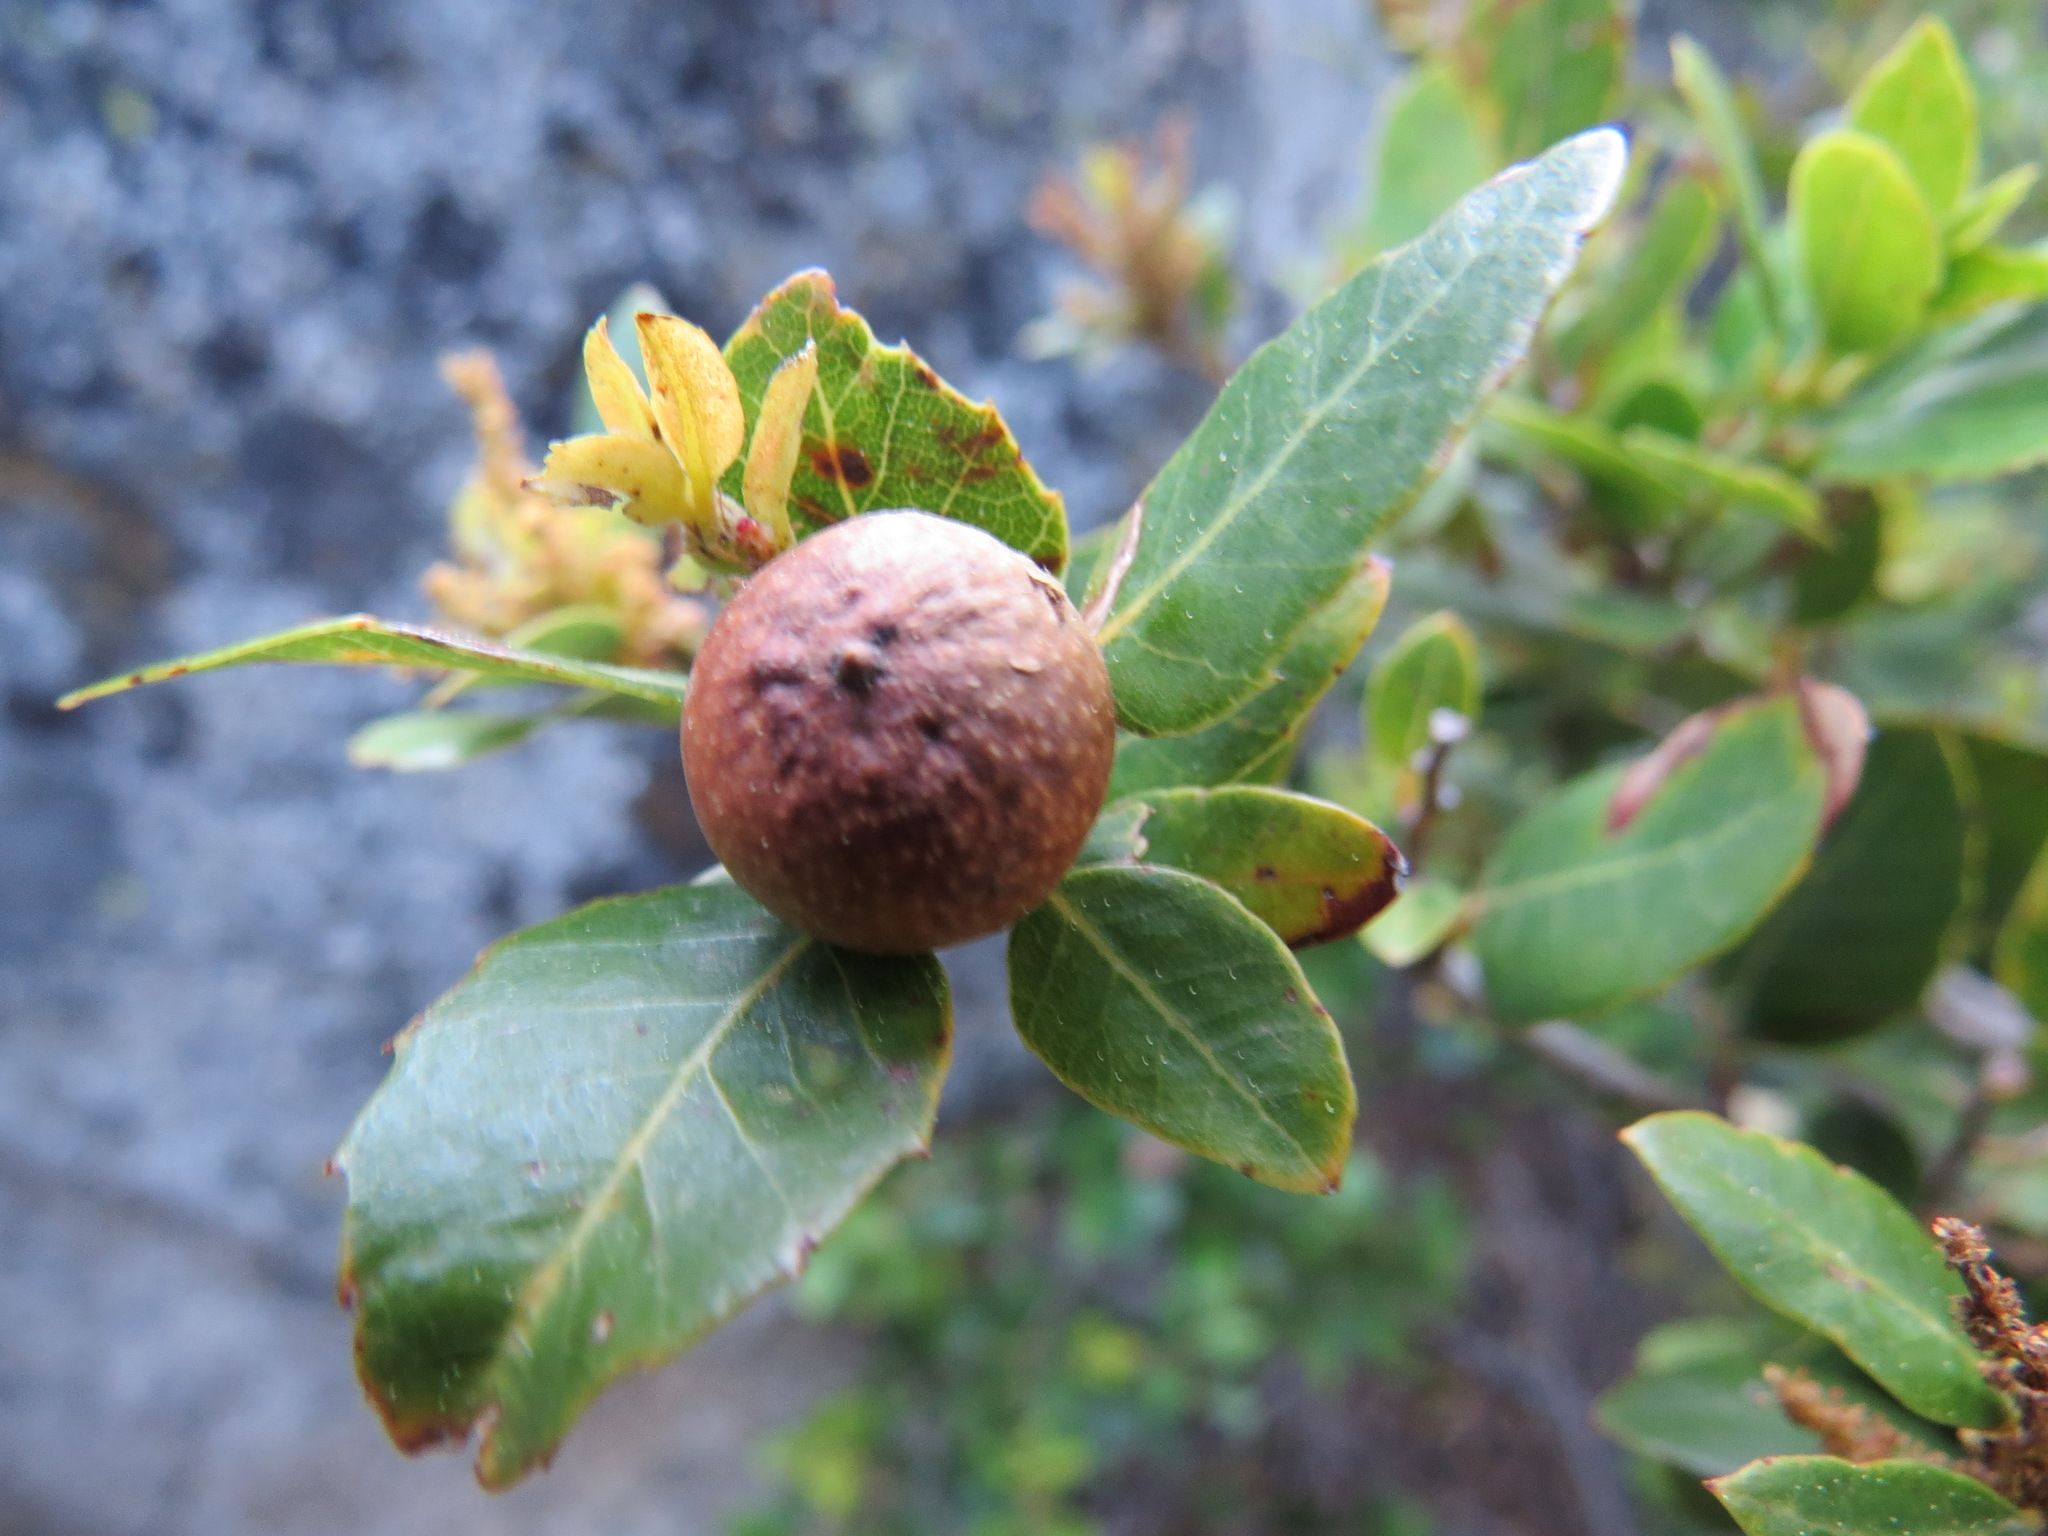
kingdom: Animalia
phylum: Arthropoda
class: Insecta
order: Hymenoptera
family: Cynipidae
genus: Heteroecus
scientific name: Heteroecus
